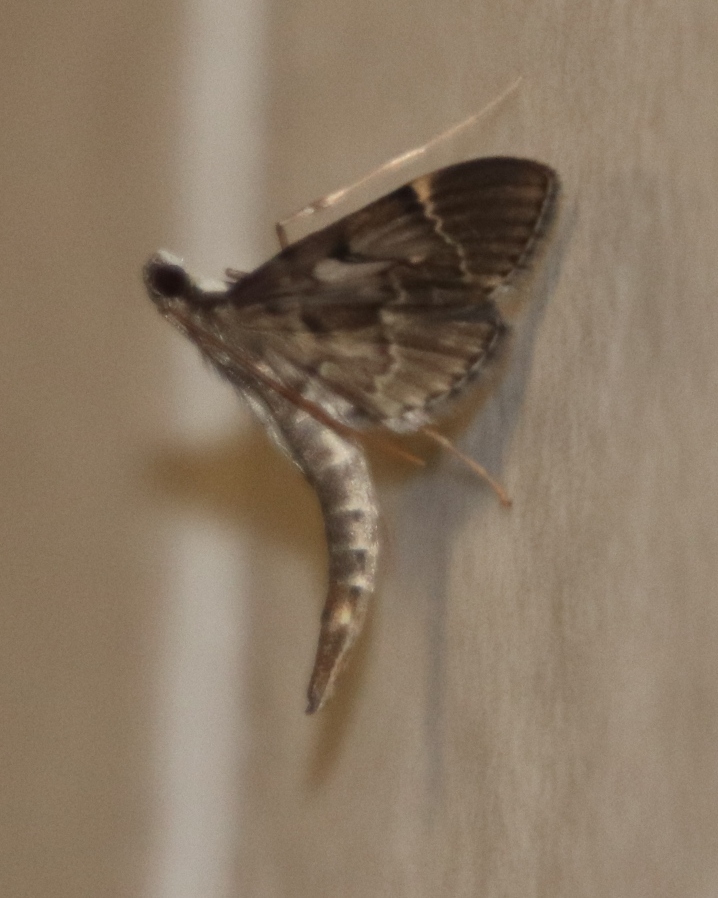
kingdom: Animalia
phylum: Arthropoda
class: Insecta
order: Lepidoptera
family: Crambidae
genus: Duponchelia
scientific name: Duponchelia fovealis
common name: Crambid moth
